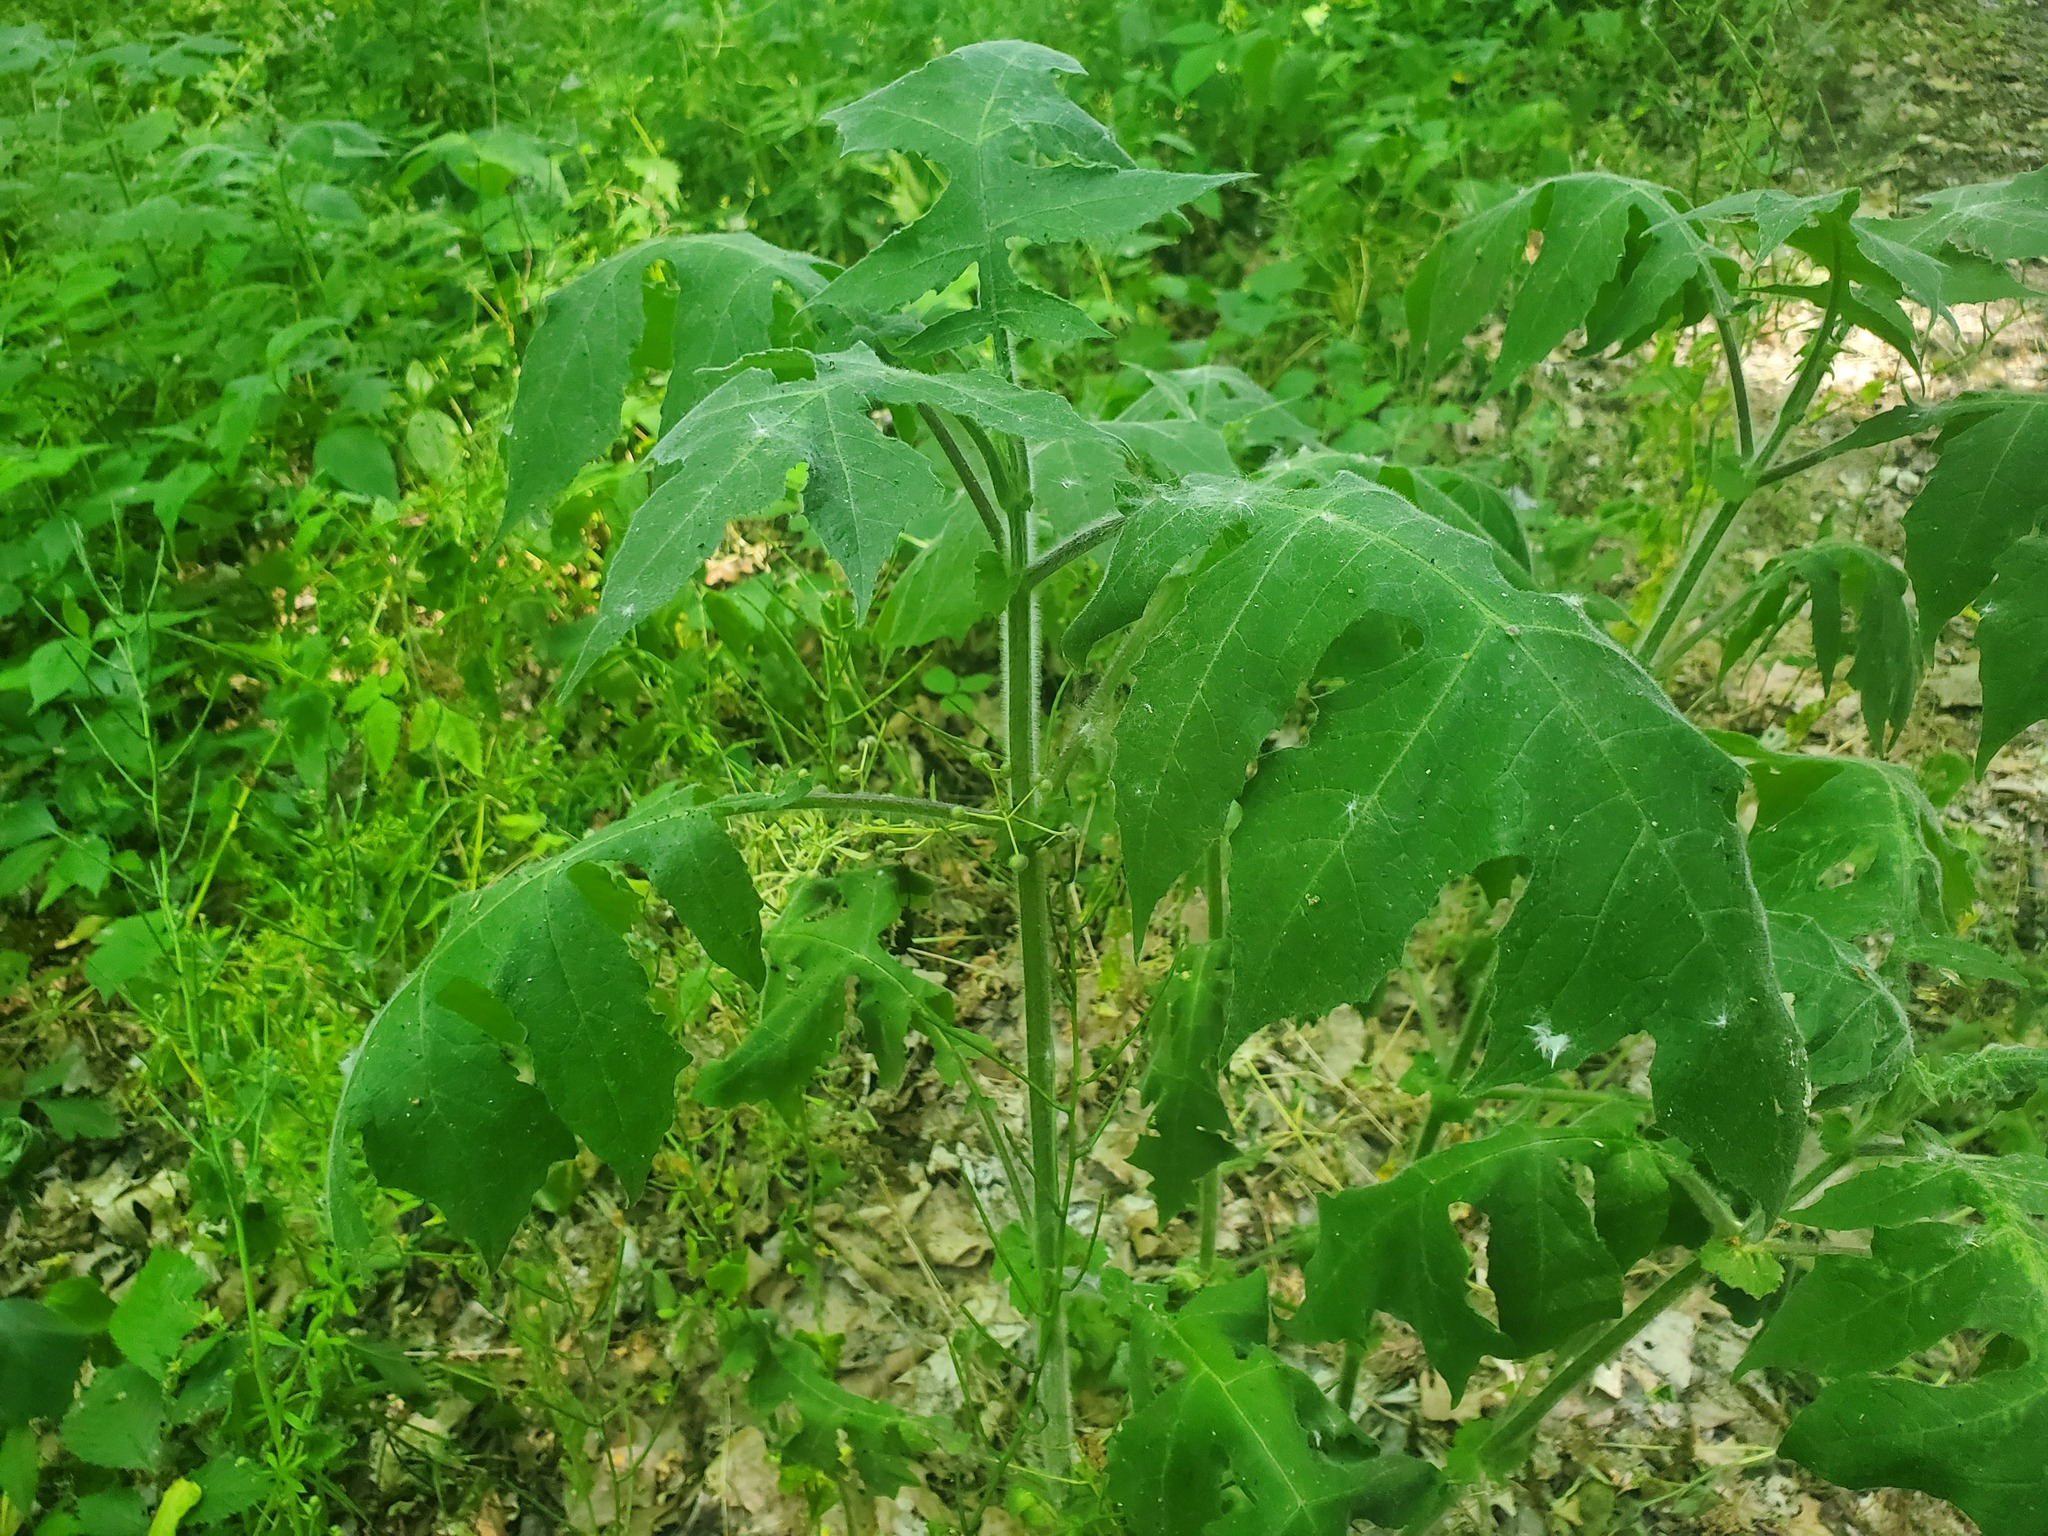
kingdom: Plantae
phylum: Tracheophyta
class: Magnoliopsida
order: Asterales
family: Asteraceae
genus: Polymnia
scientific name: Polymnia canadensis
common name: Pale-flowered leafcup
